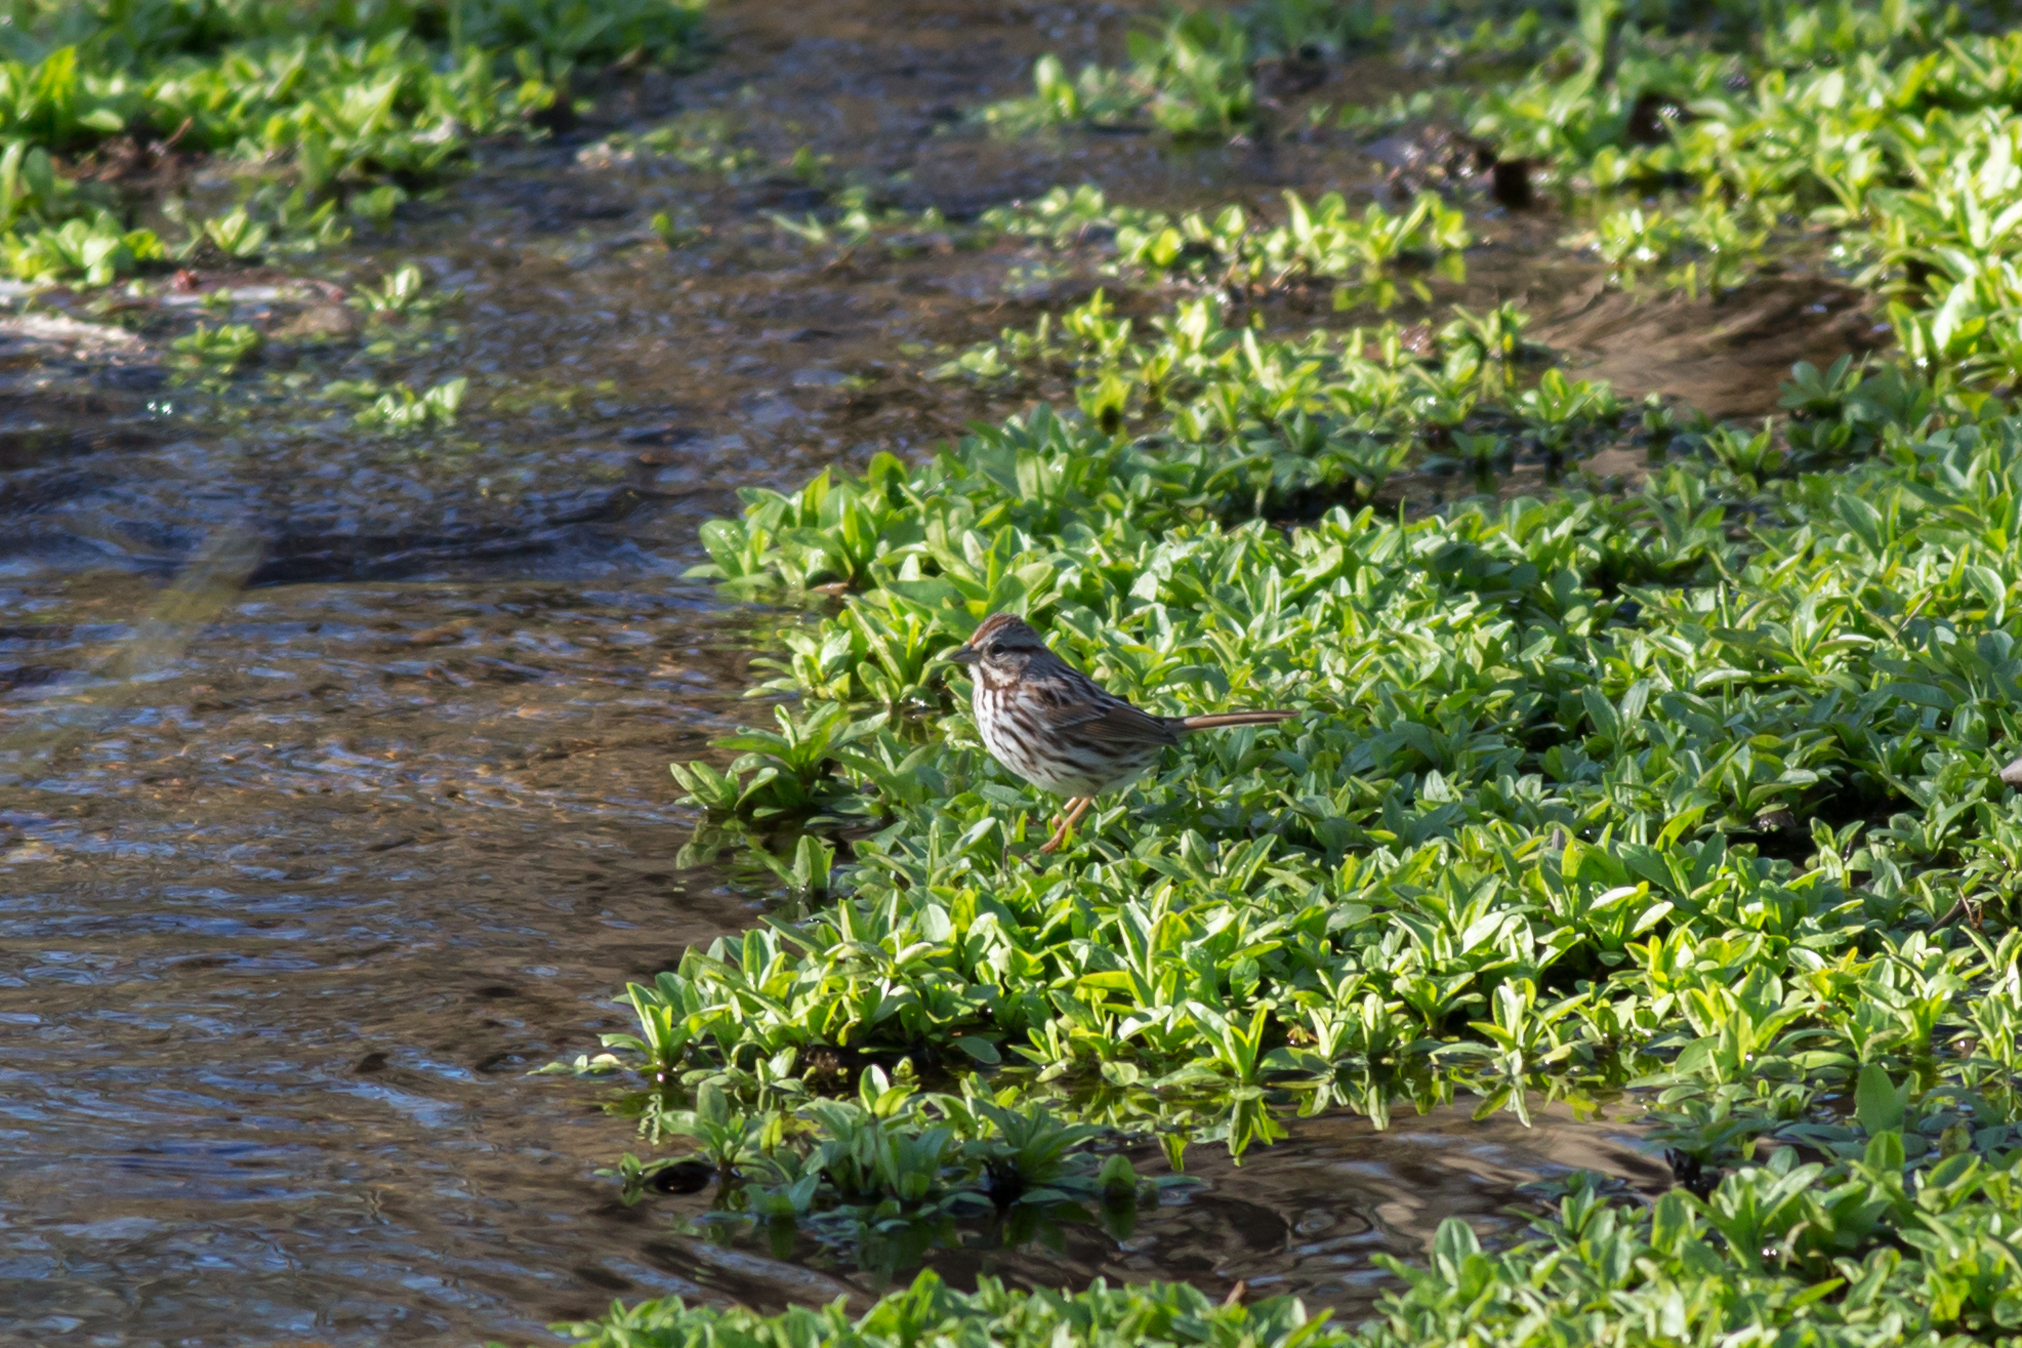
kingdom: Animalia
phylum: Chordata
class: Aves
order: Passeriformes
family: Passerellidae
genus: Melospiza
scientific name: Melospiza melodia
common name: Song sparrow
